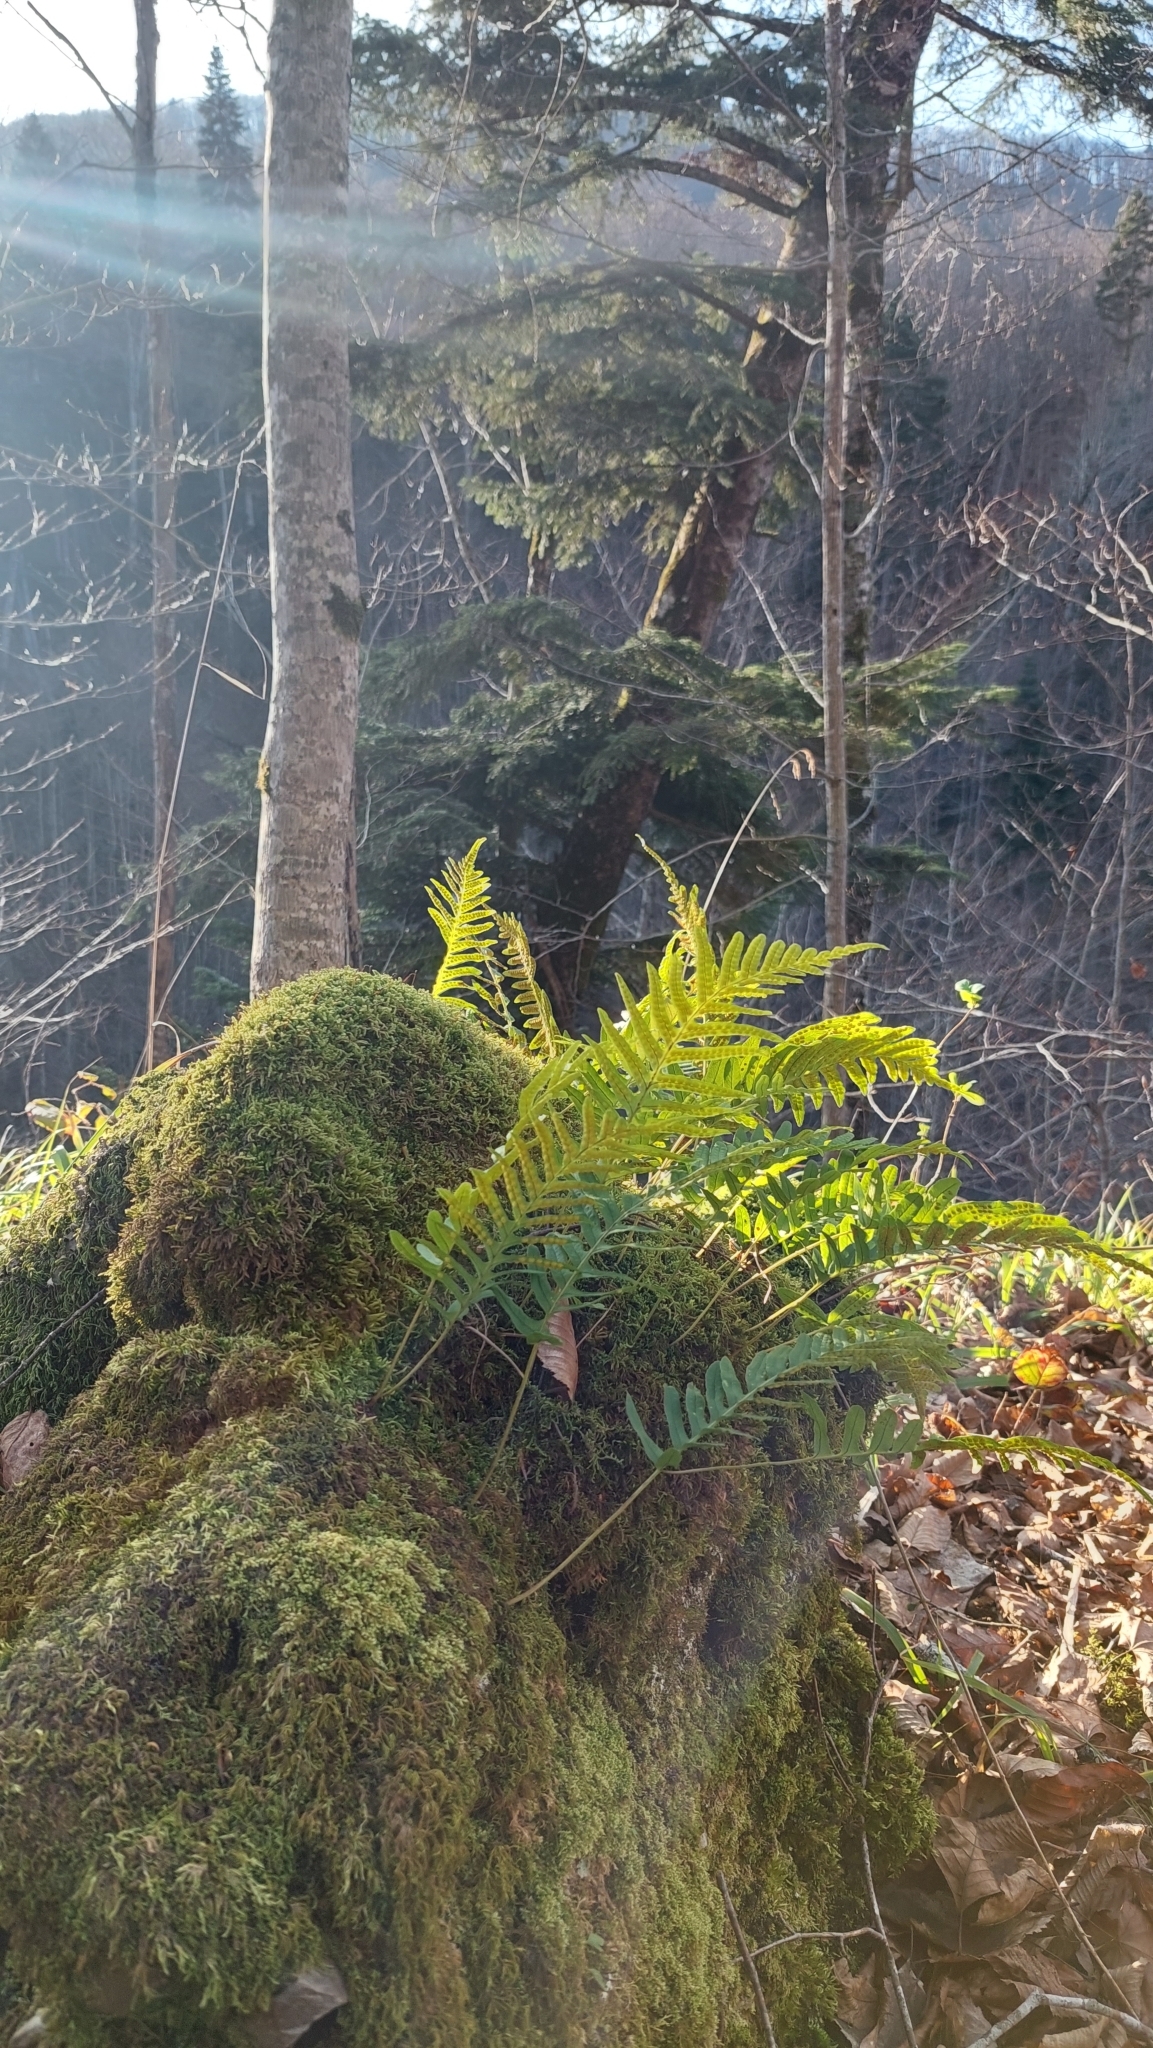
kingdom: Plantae
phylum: Tracheophyta
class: Polypodiopsida
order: Polypodiales
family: Polypodiaceae
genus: Polypodium
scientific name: Polypodium cambricum
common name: Southern polypody
